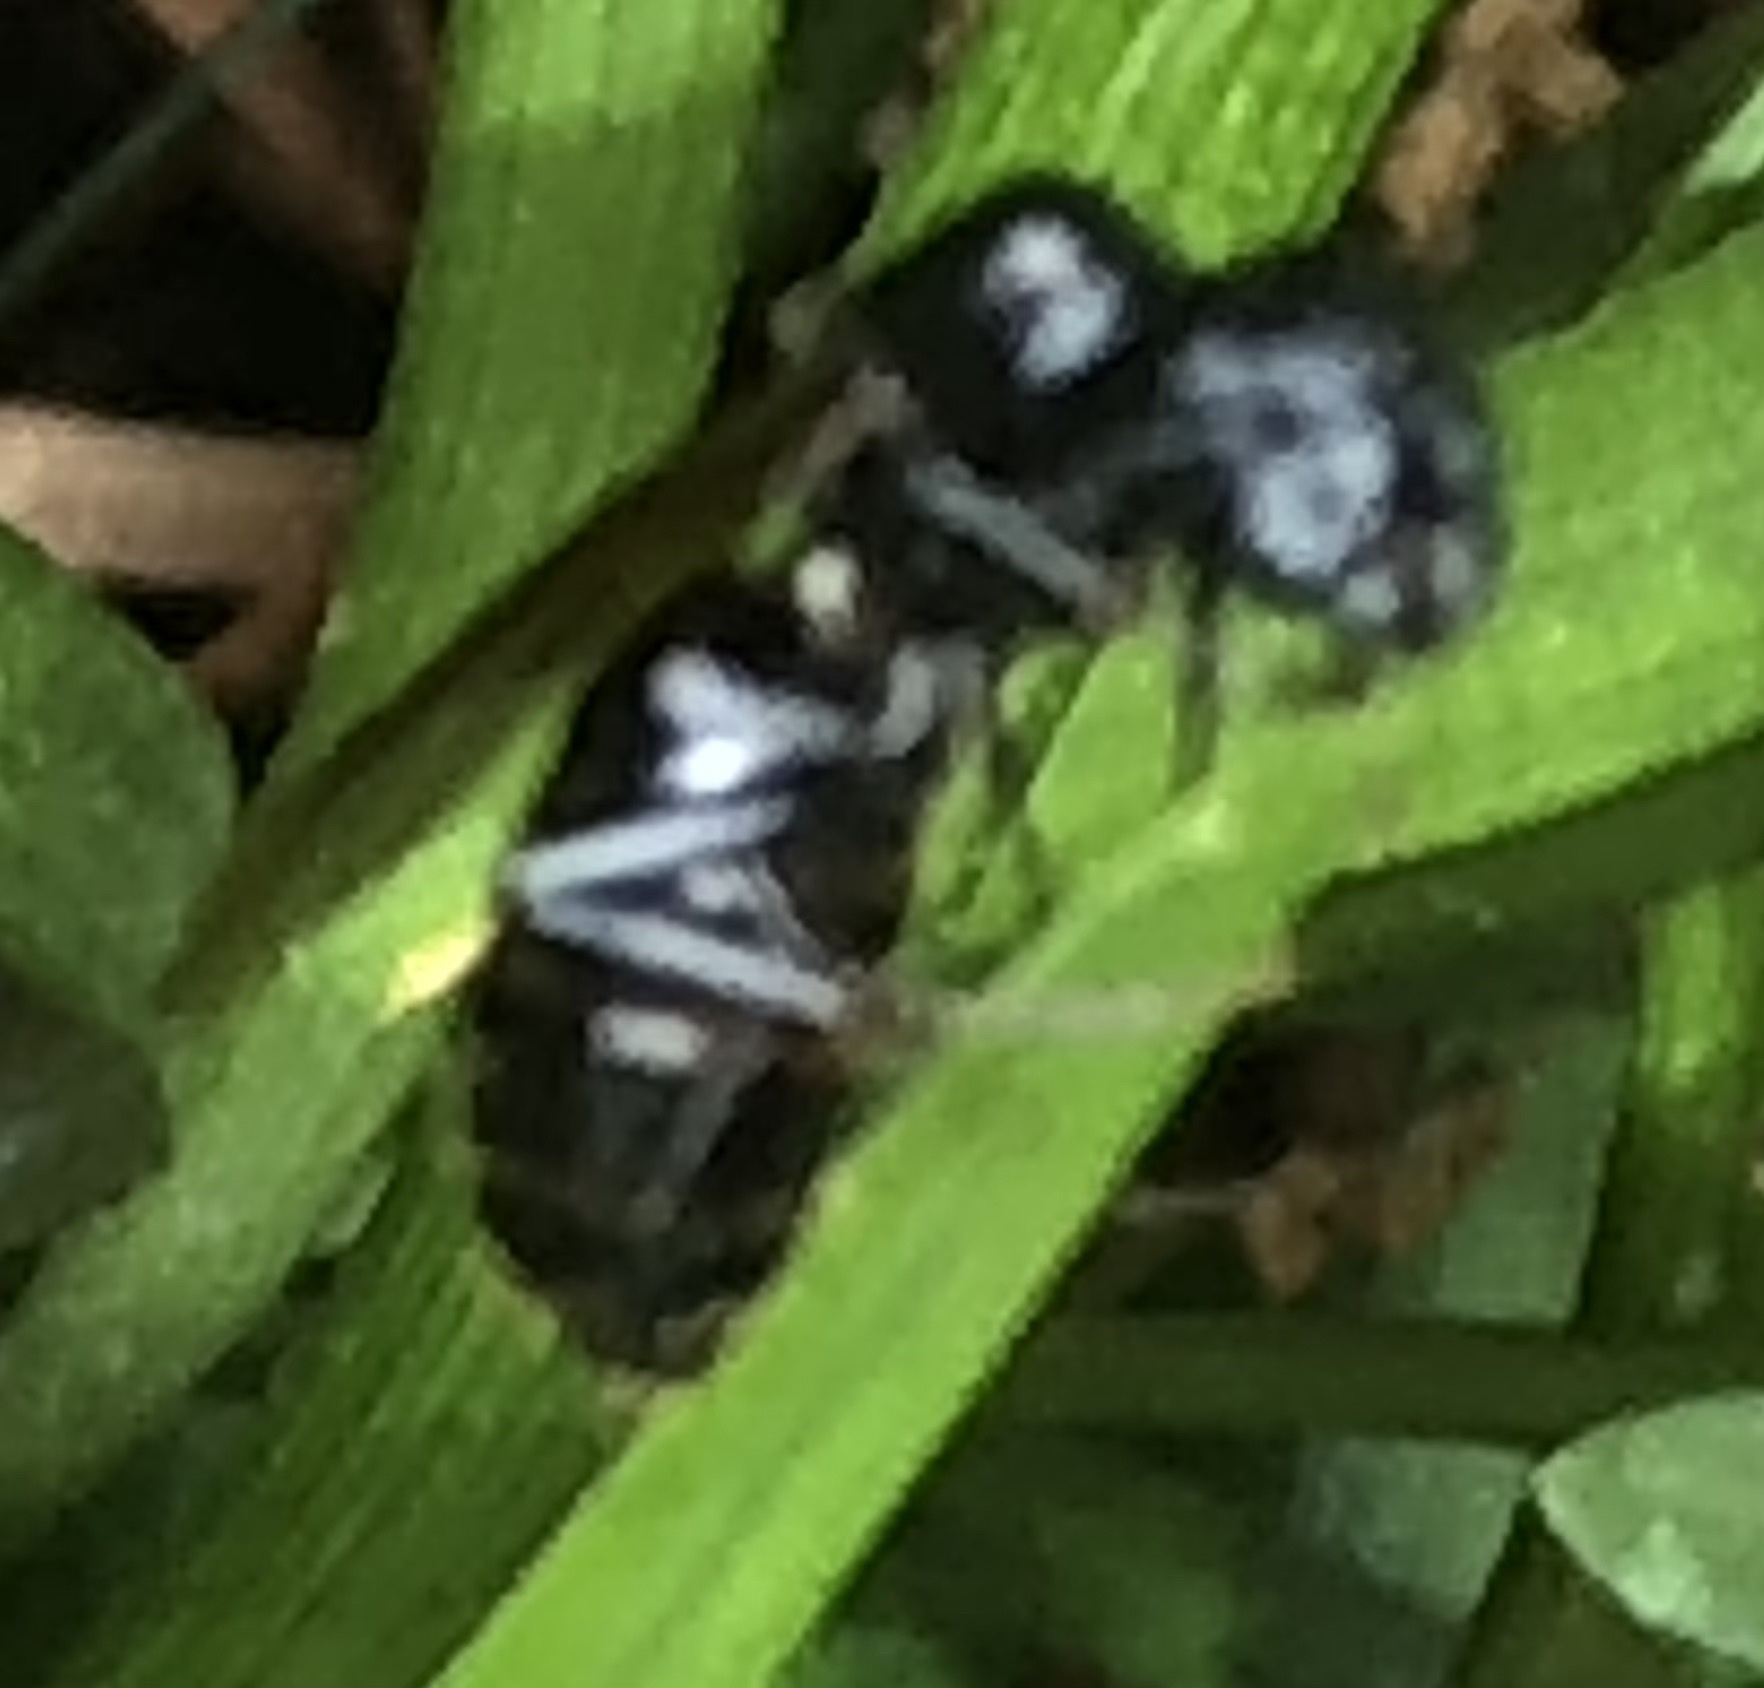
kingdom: Animalia
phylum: Arthropoda
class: Insecta
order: Hymenoptera
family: Formicidae
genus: Camponotus
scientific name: Camponotus pennsylvanicus
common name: Black carpenter ant
